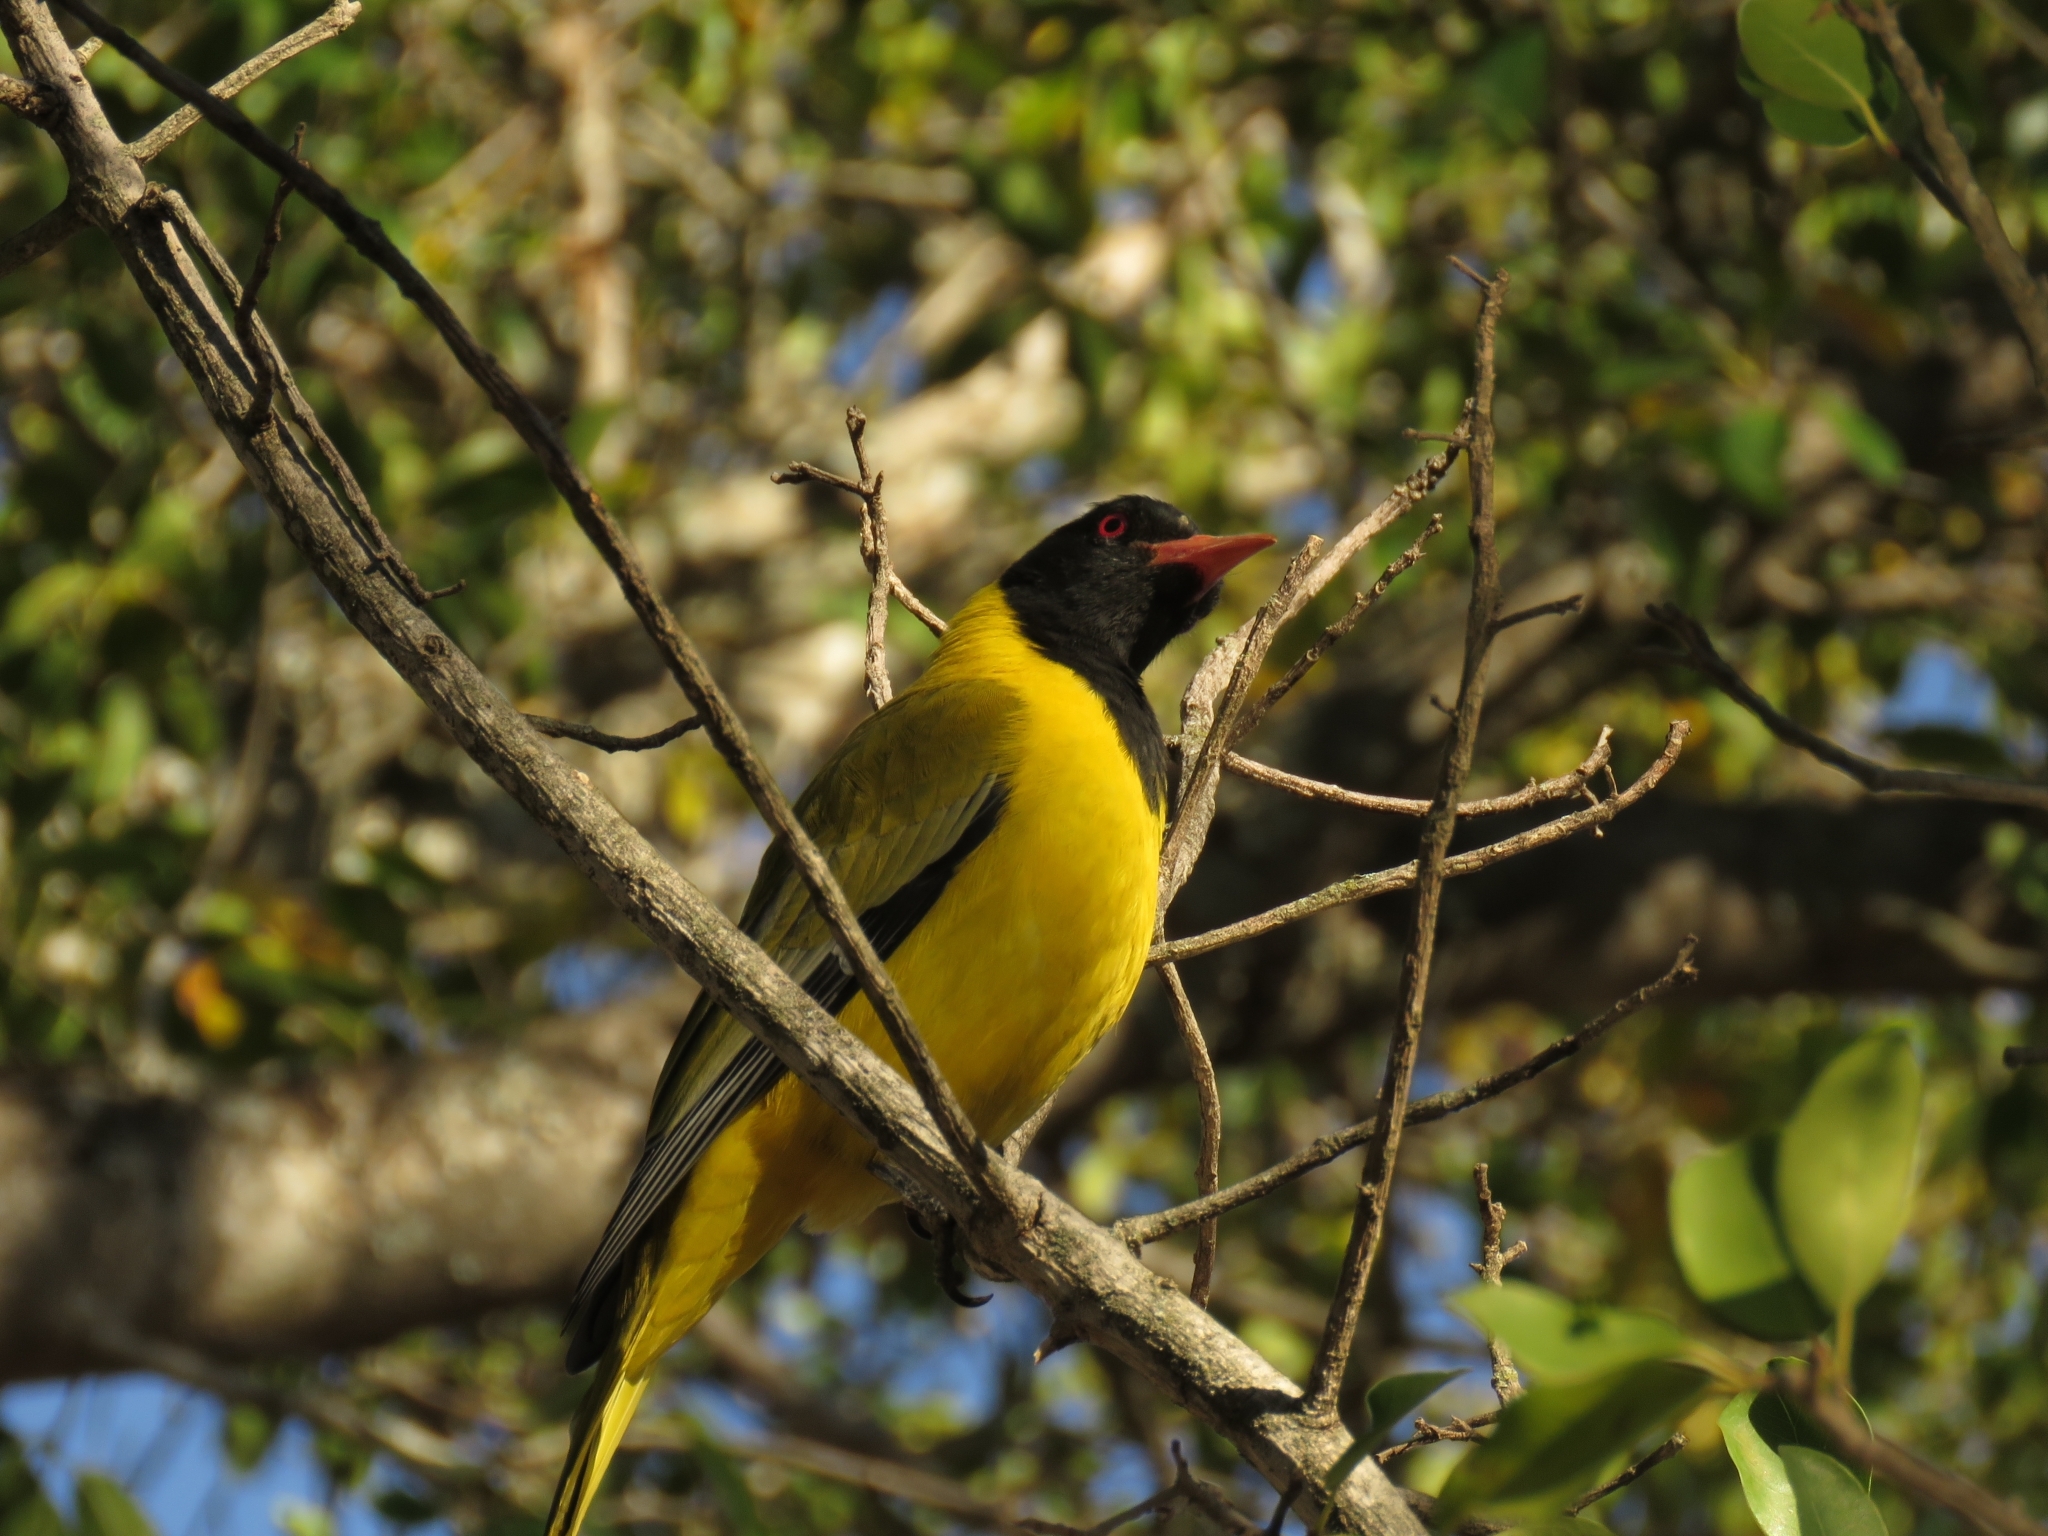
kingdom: Animalia
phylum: Chordata
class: Aves
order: Passeriformes
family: Oriolidae
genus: Oriolus
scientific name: Oriolus larvatus
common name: Black-headed oriole
